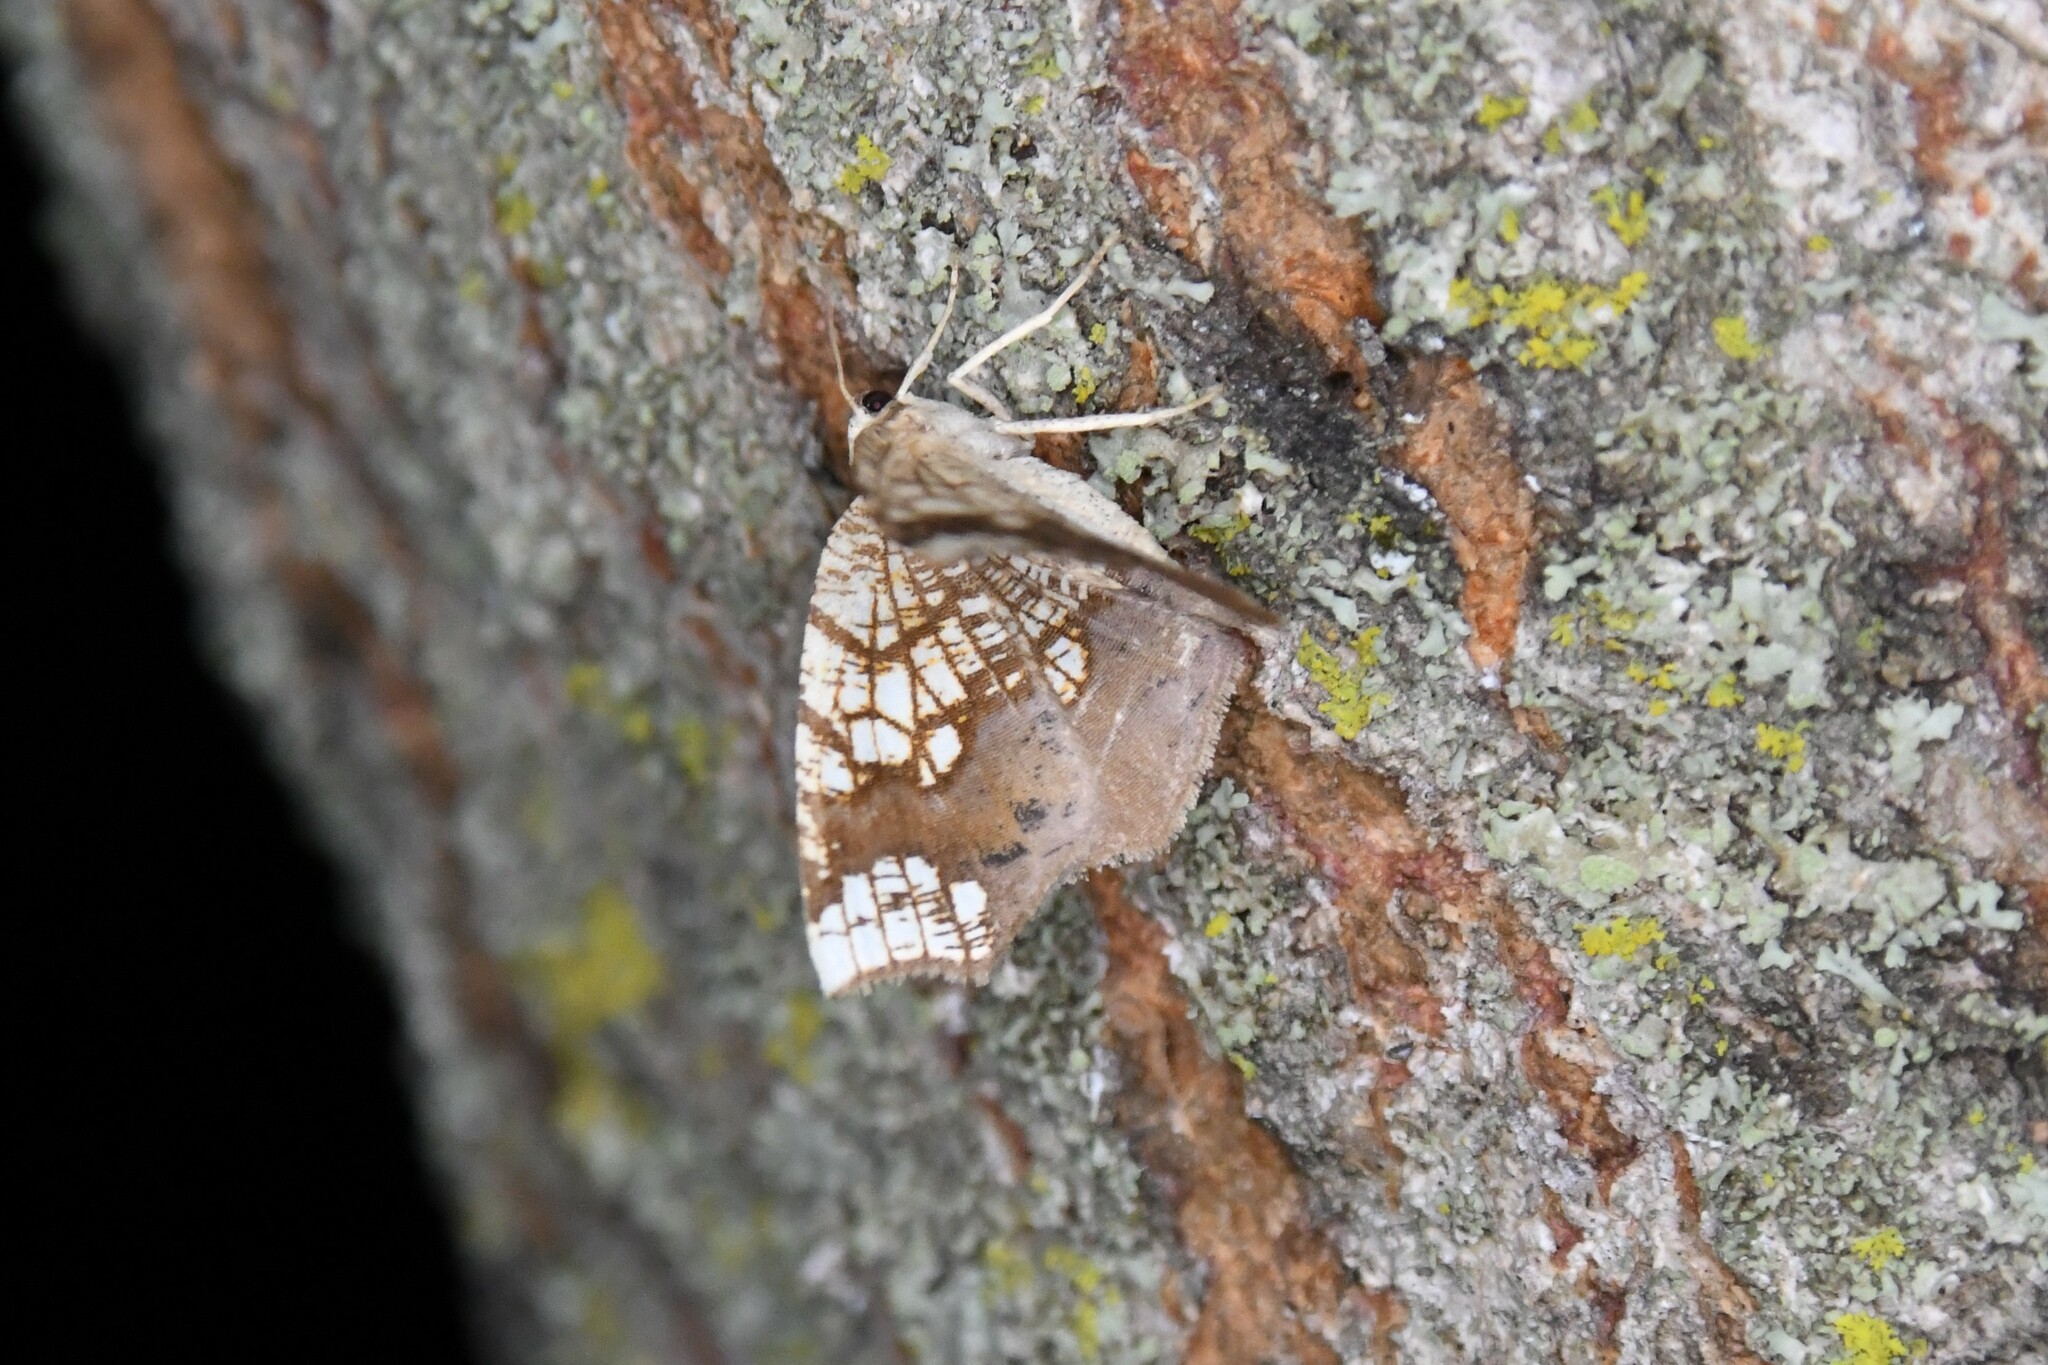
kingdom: Animalia
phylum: Arthropoda
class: Insecta
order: Lepidoptera
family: Geometridae
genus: Nematocampa
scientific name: Nematocampa resistaria
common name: Horned spanworm moth
